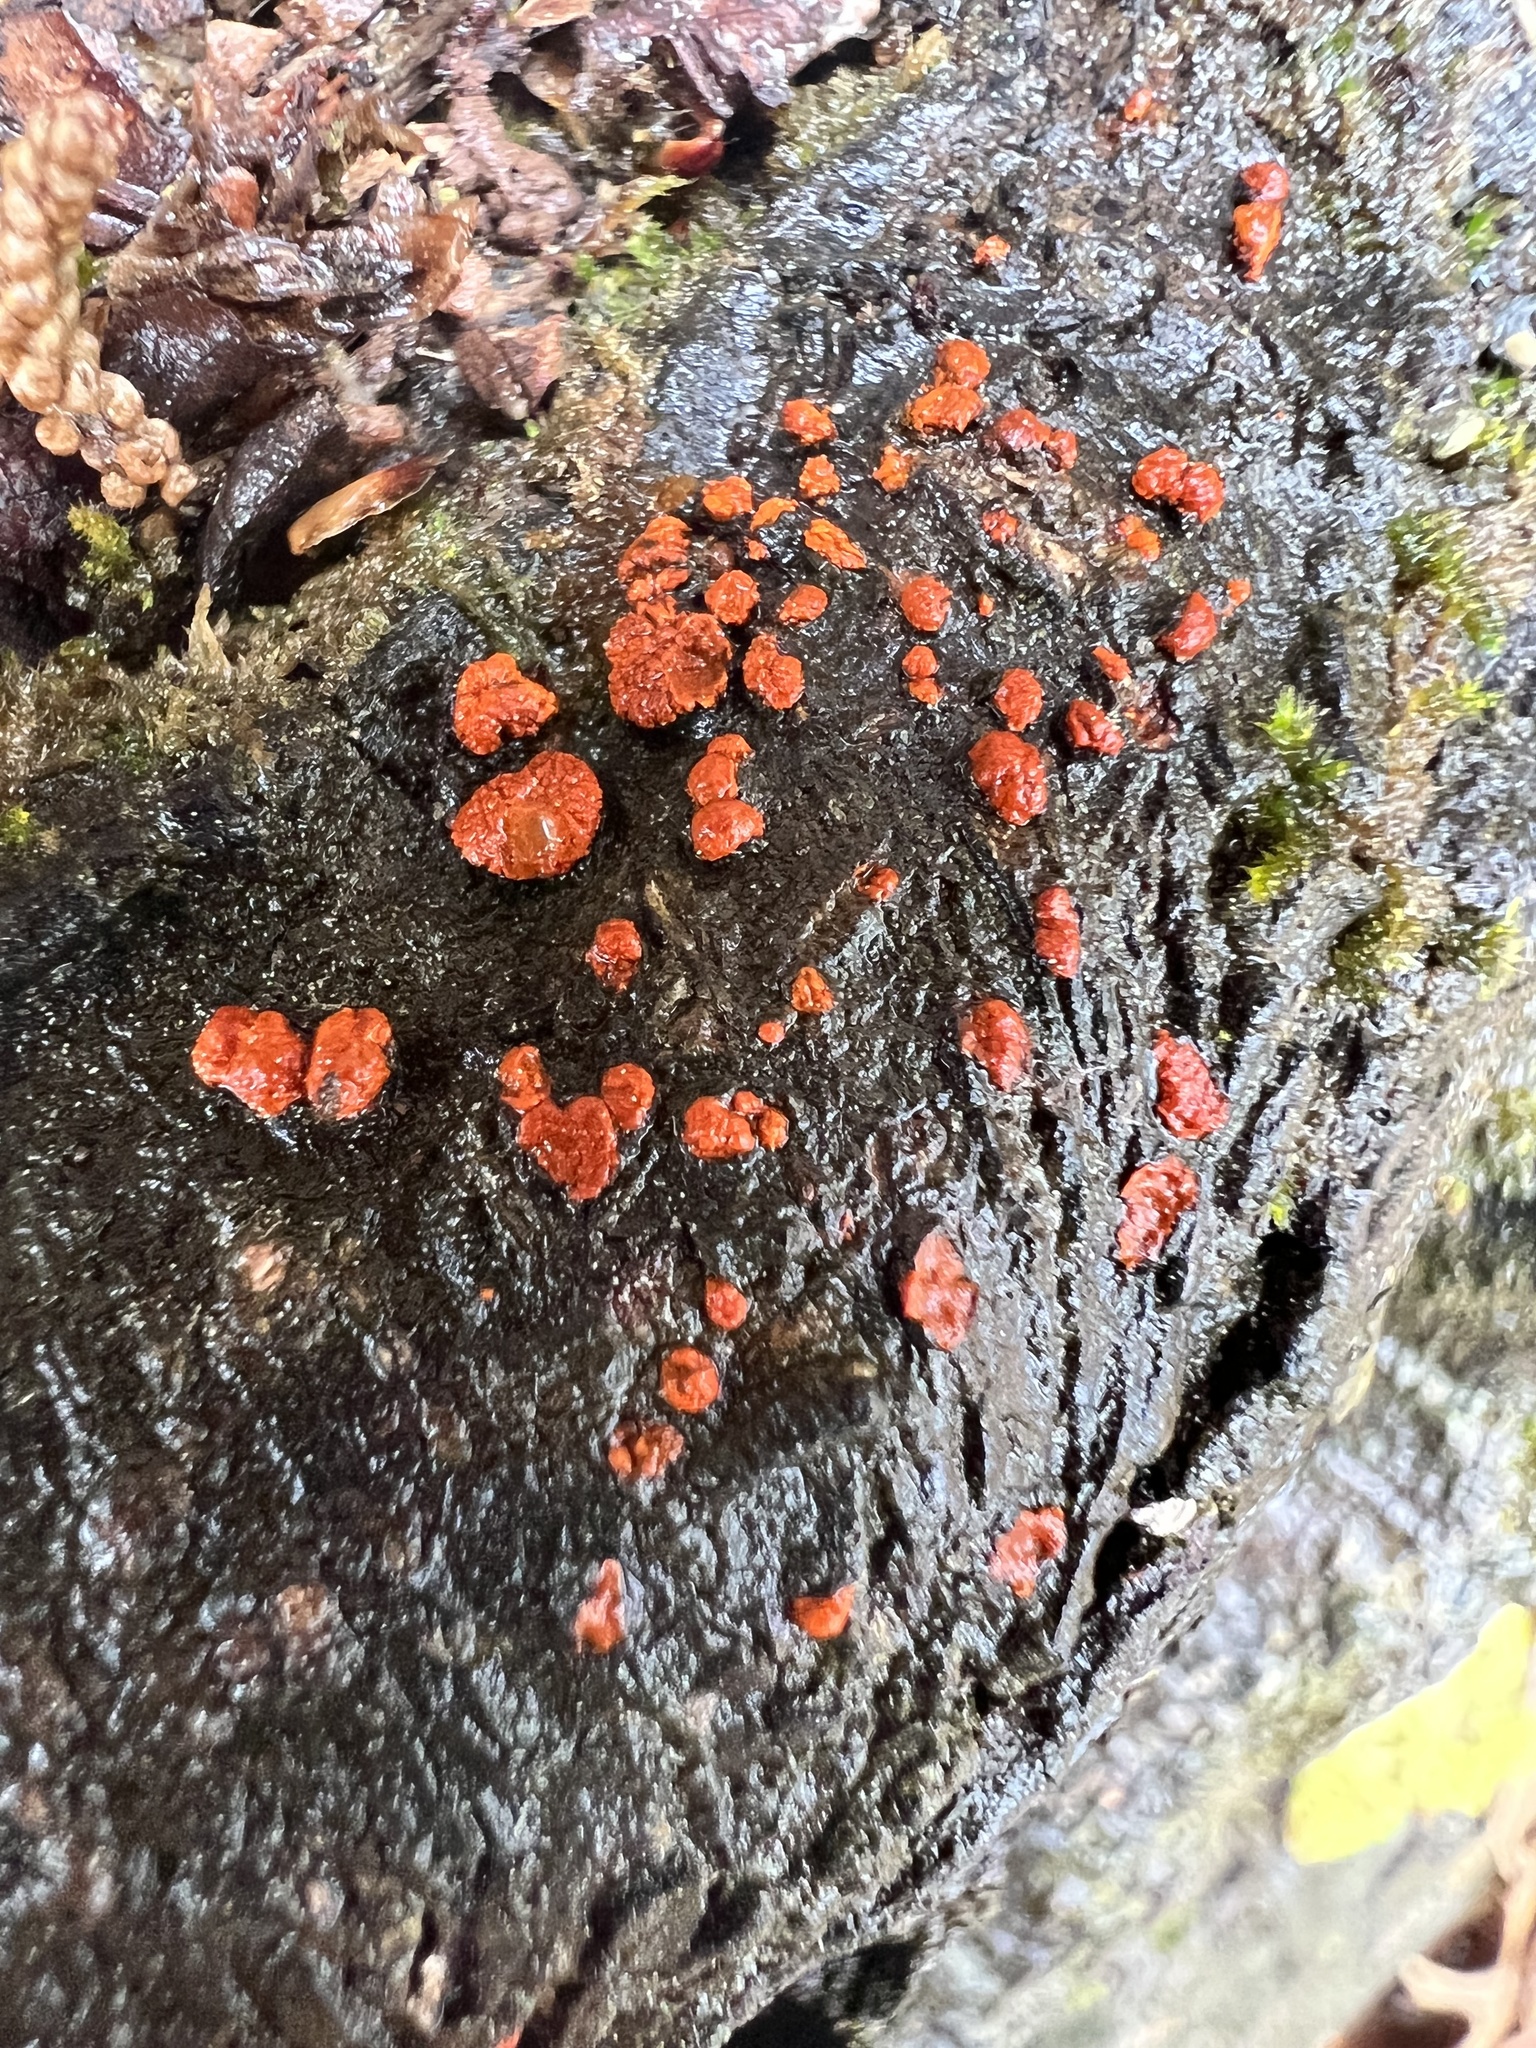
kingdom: Fungi
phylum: Ascomycota
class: Sordariomycetes
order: Diaporthales
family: Cryphonectriaceae
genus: Amphilogia
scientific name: Amphilogia gyrosa
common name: Orange hobnail canker
